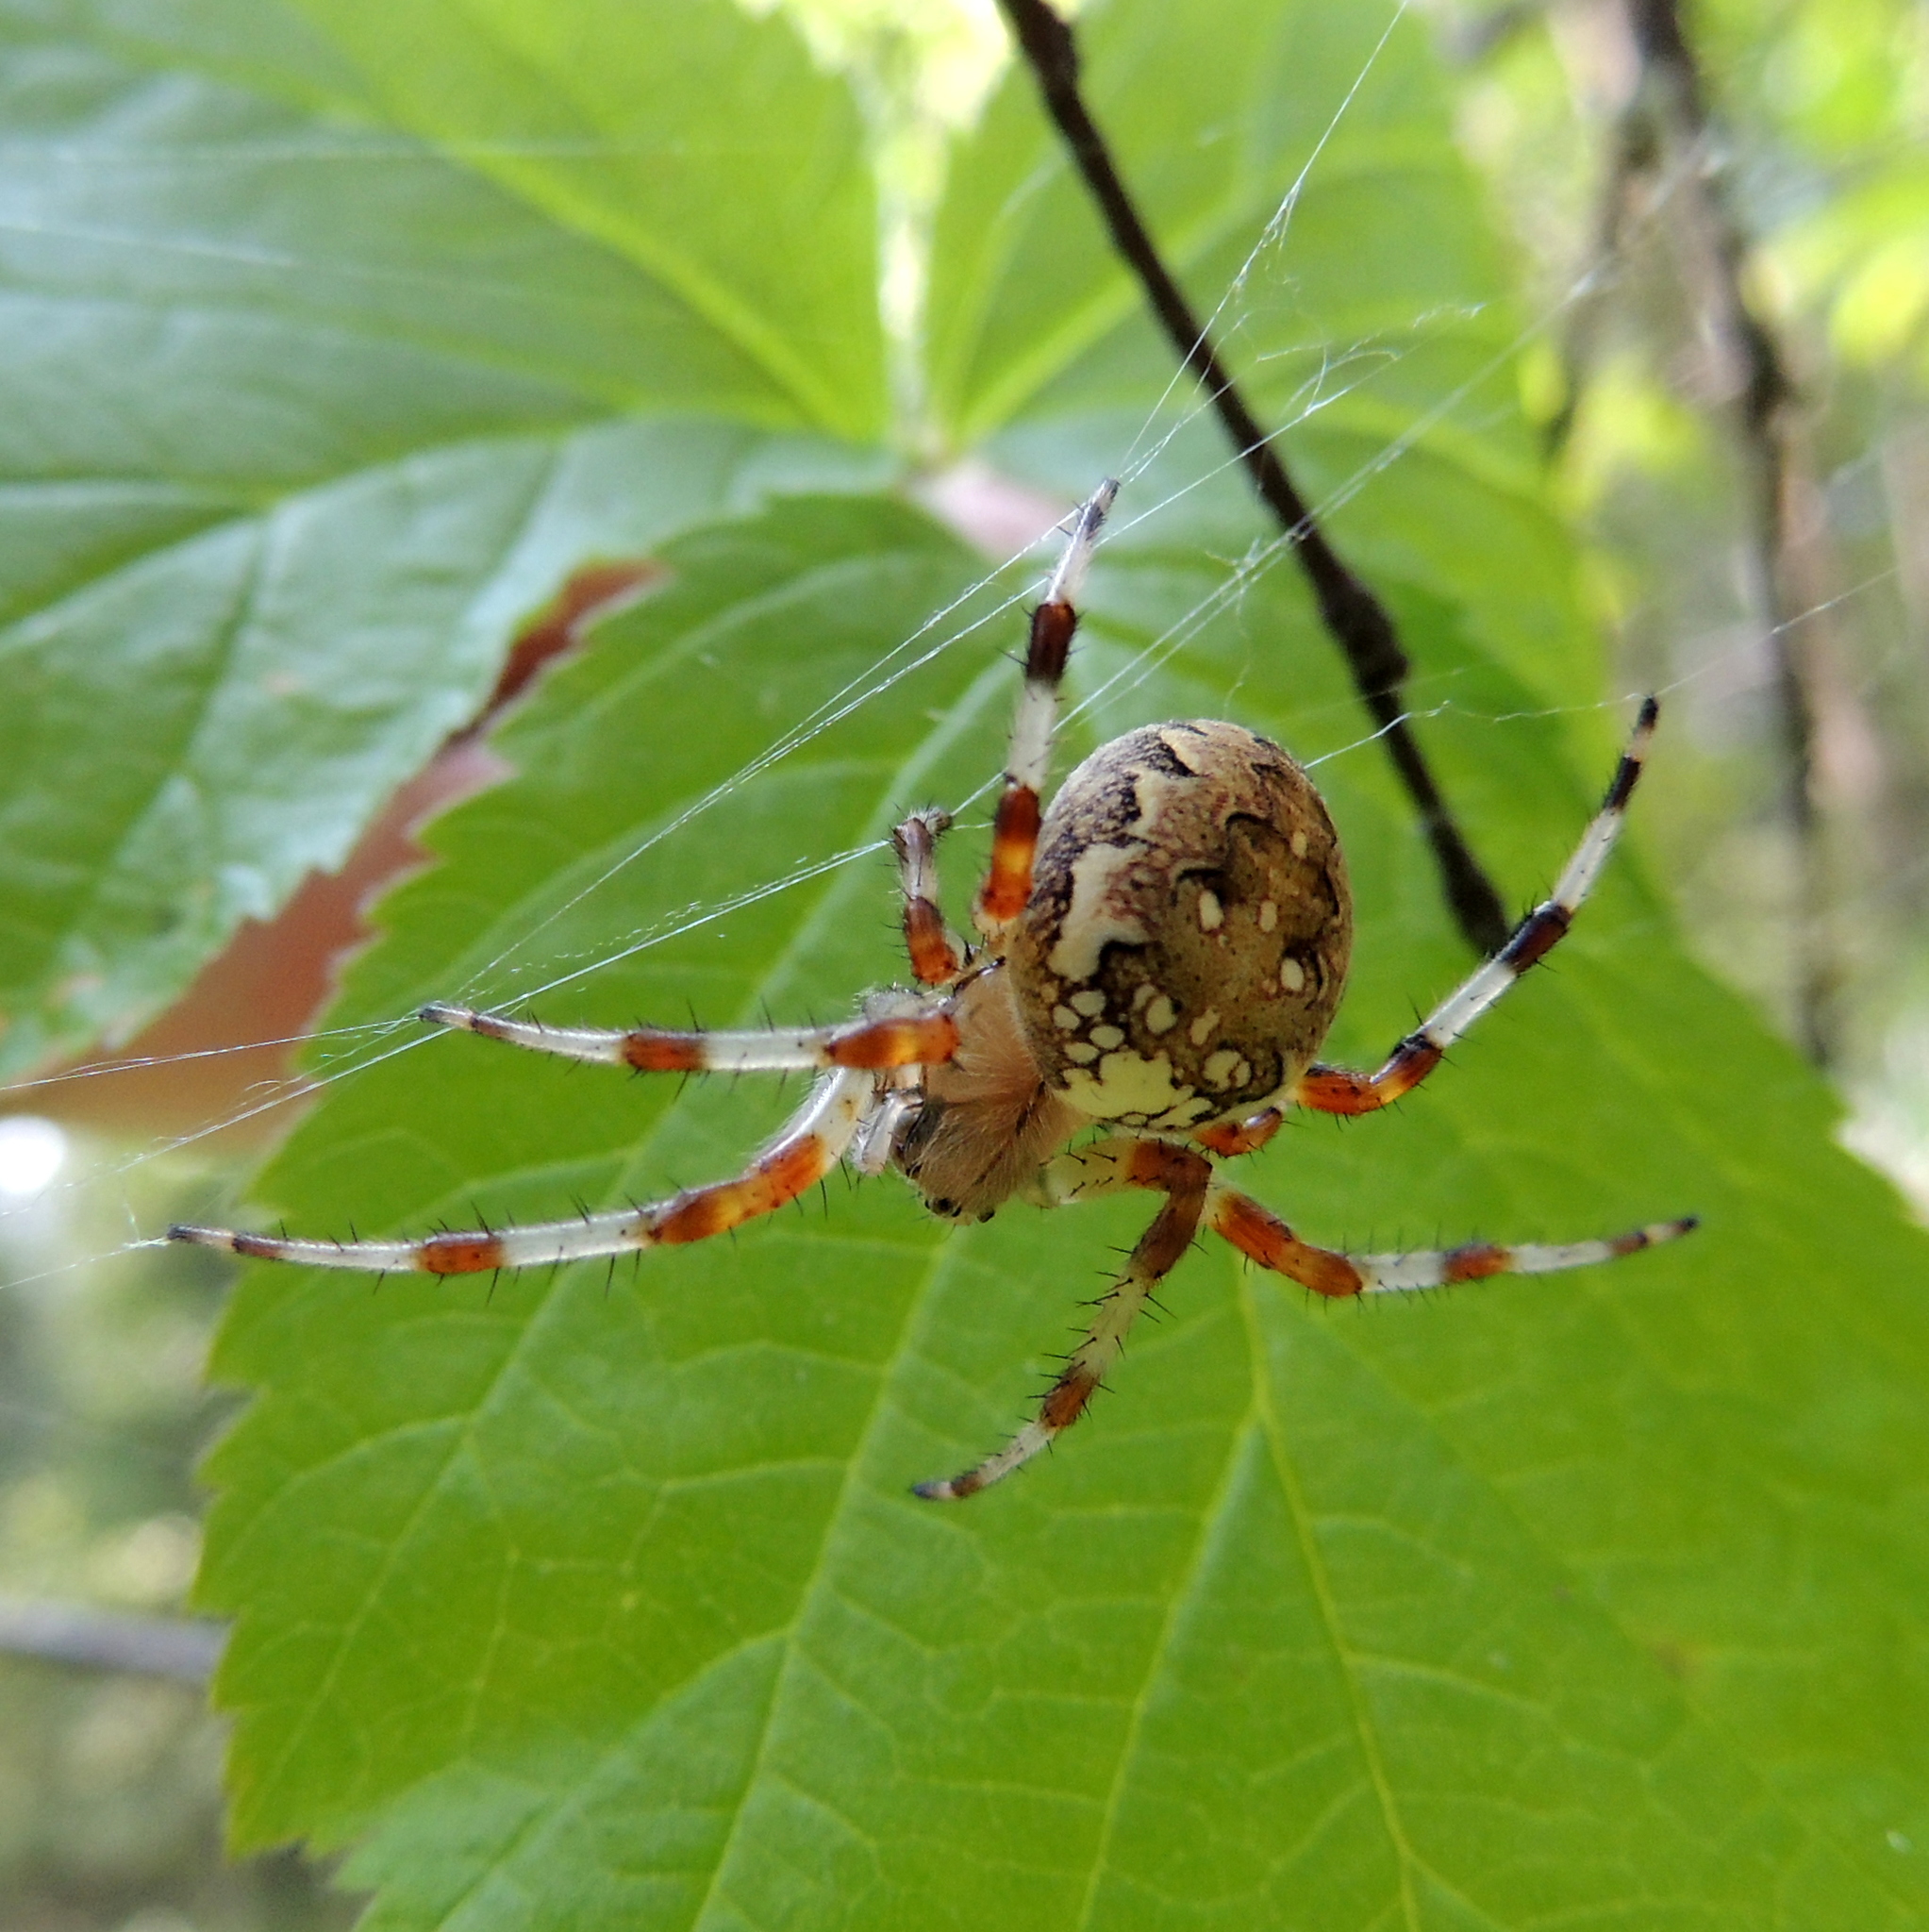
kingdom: Animalia
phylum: Arthropoda
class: Arachnida
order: Araneae
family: Araneidae
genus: Araneus
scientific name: Araneus marmoreus
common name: Marbled orbweaver
